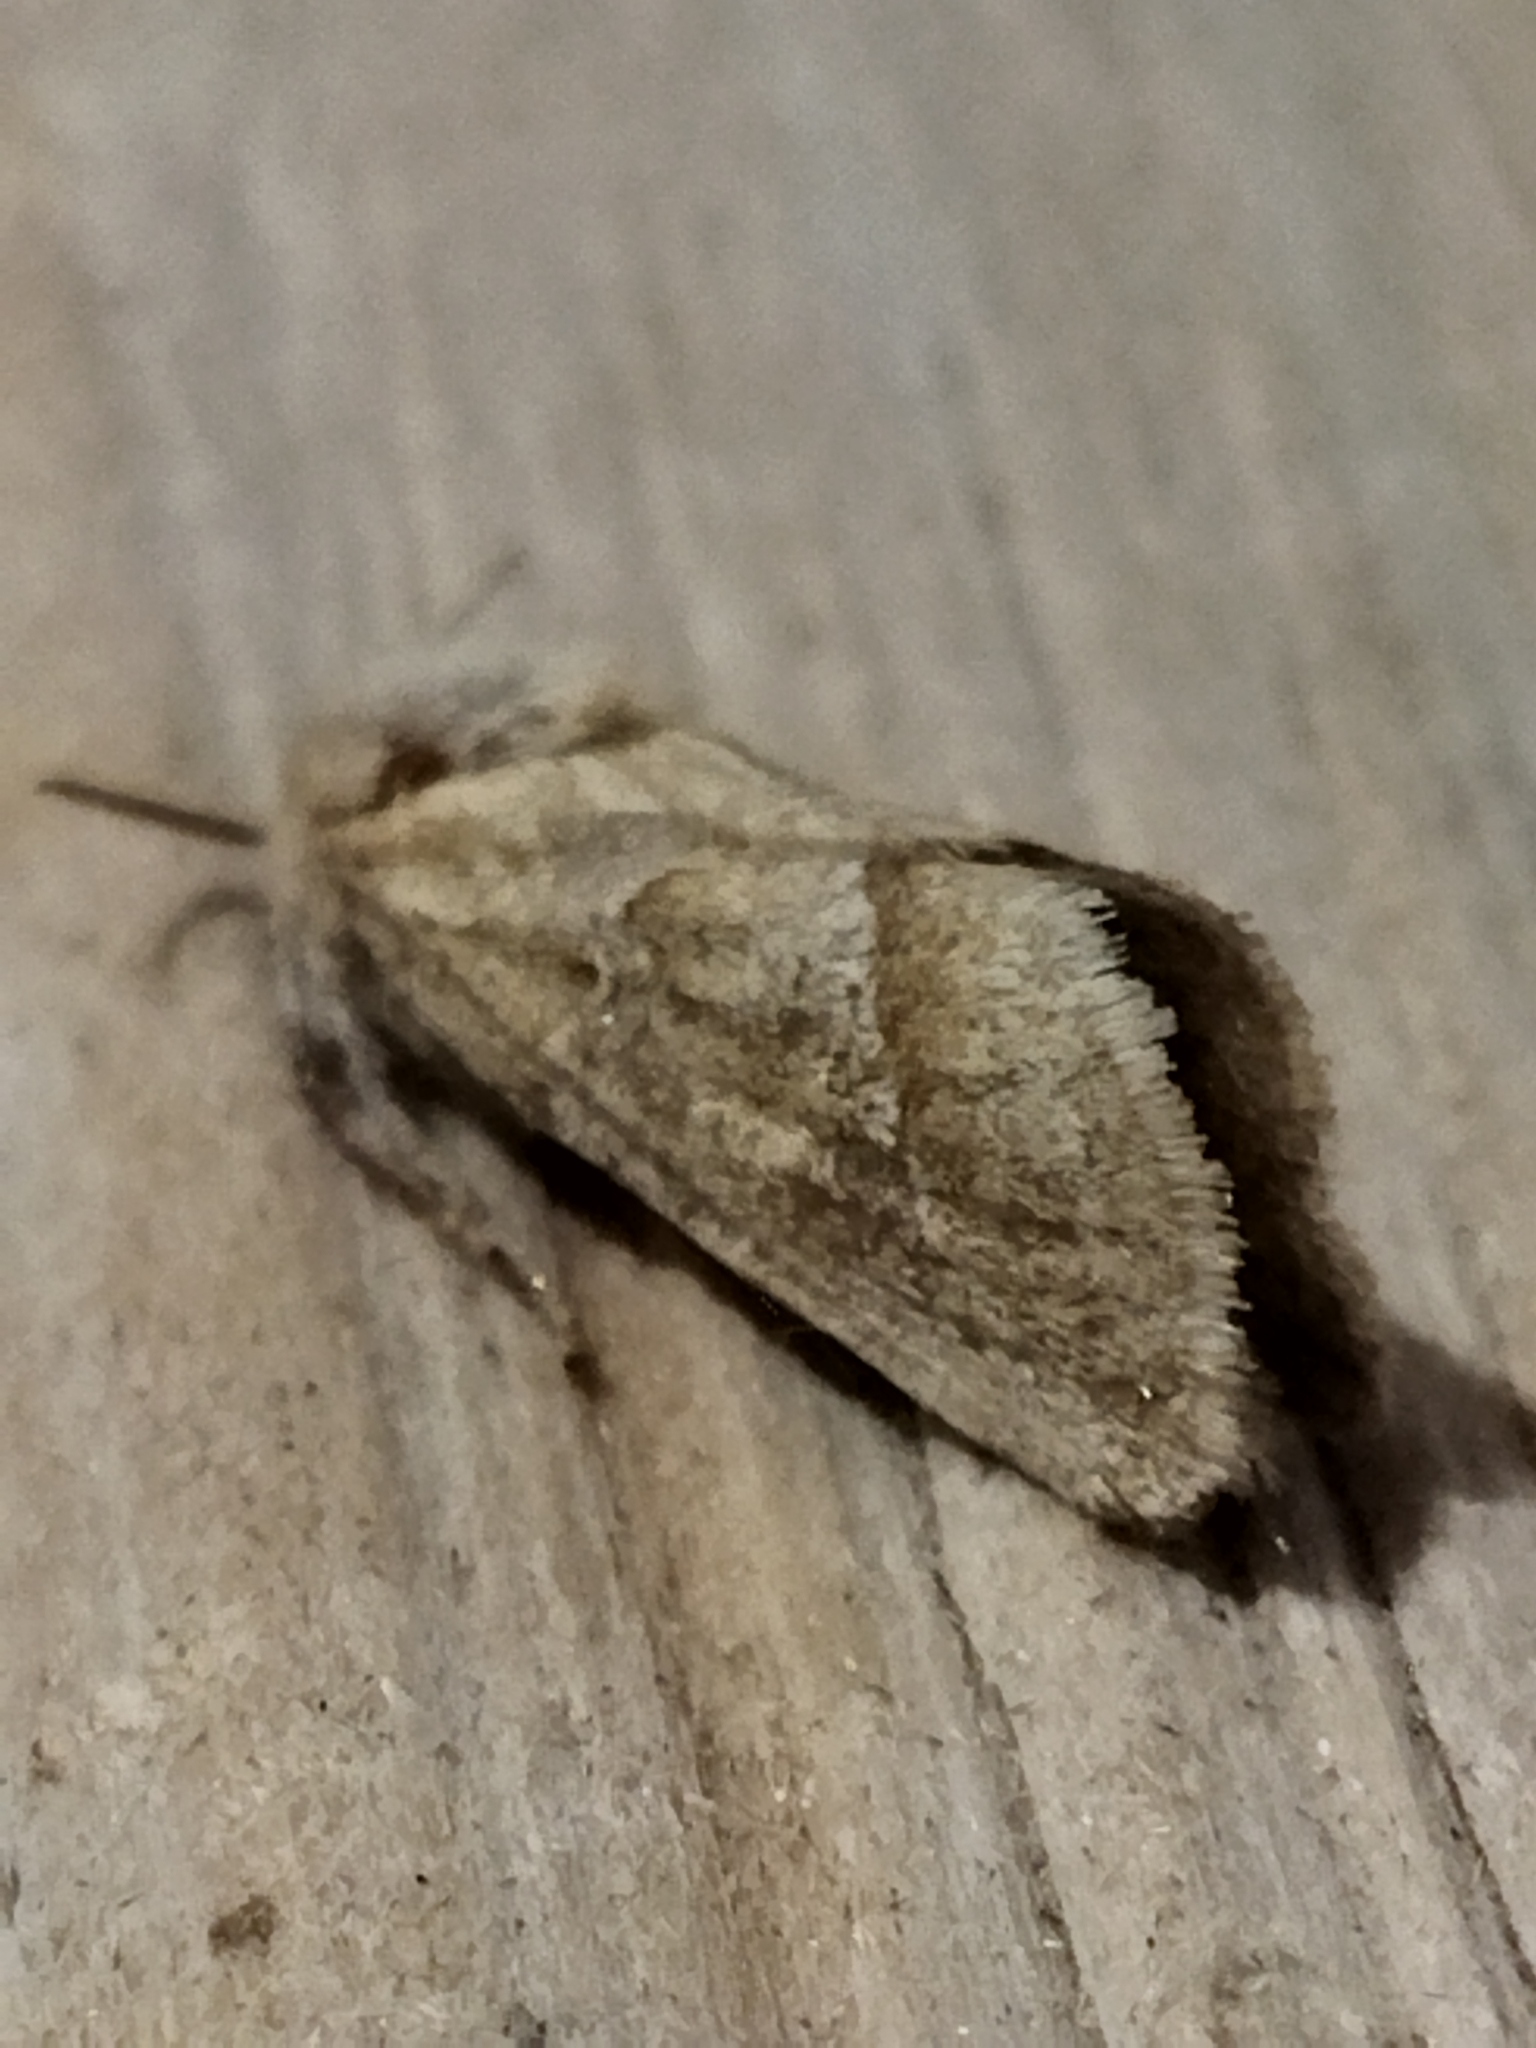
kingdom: Animalia
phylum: Arthropoda
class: Insecta
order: Lepidoptera
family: Hepialidae
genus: Triodia
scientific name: Triodia amasinus
